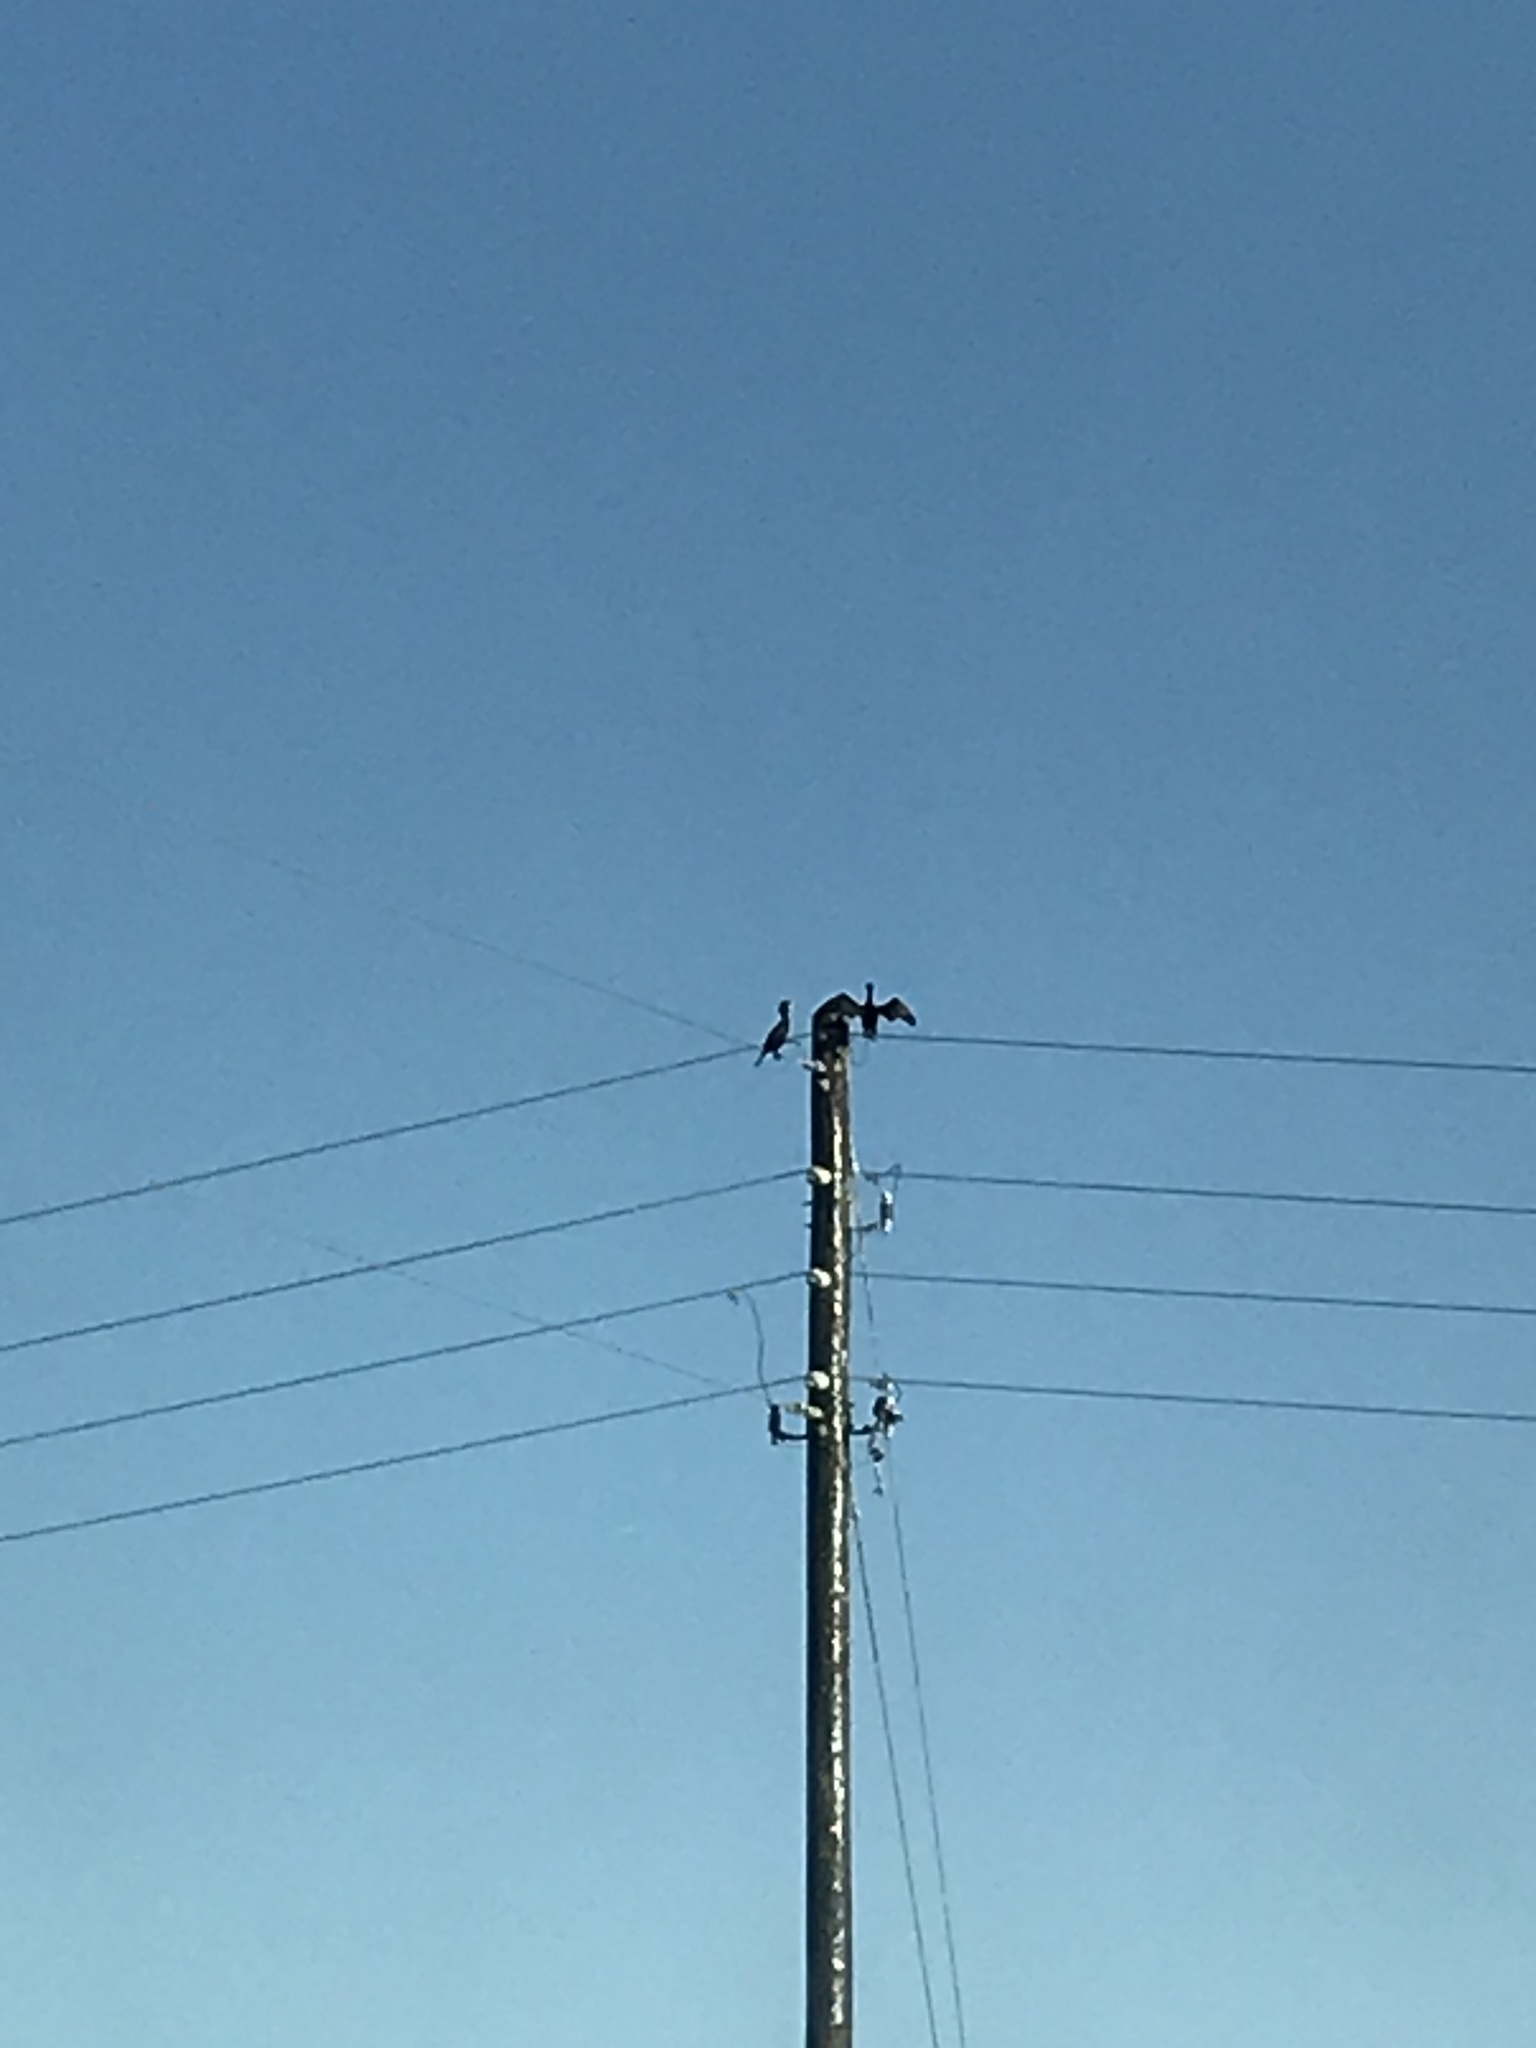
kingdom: Animalia
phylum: Chordata
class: Aves
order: Suliformes
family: Phalacrocoracidae
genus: Phalacrocorax
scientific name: Phalacrocorax auritus
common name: Double-crested cormorant
